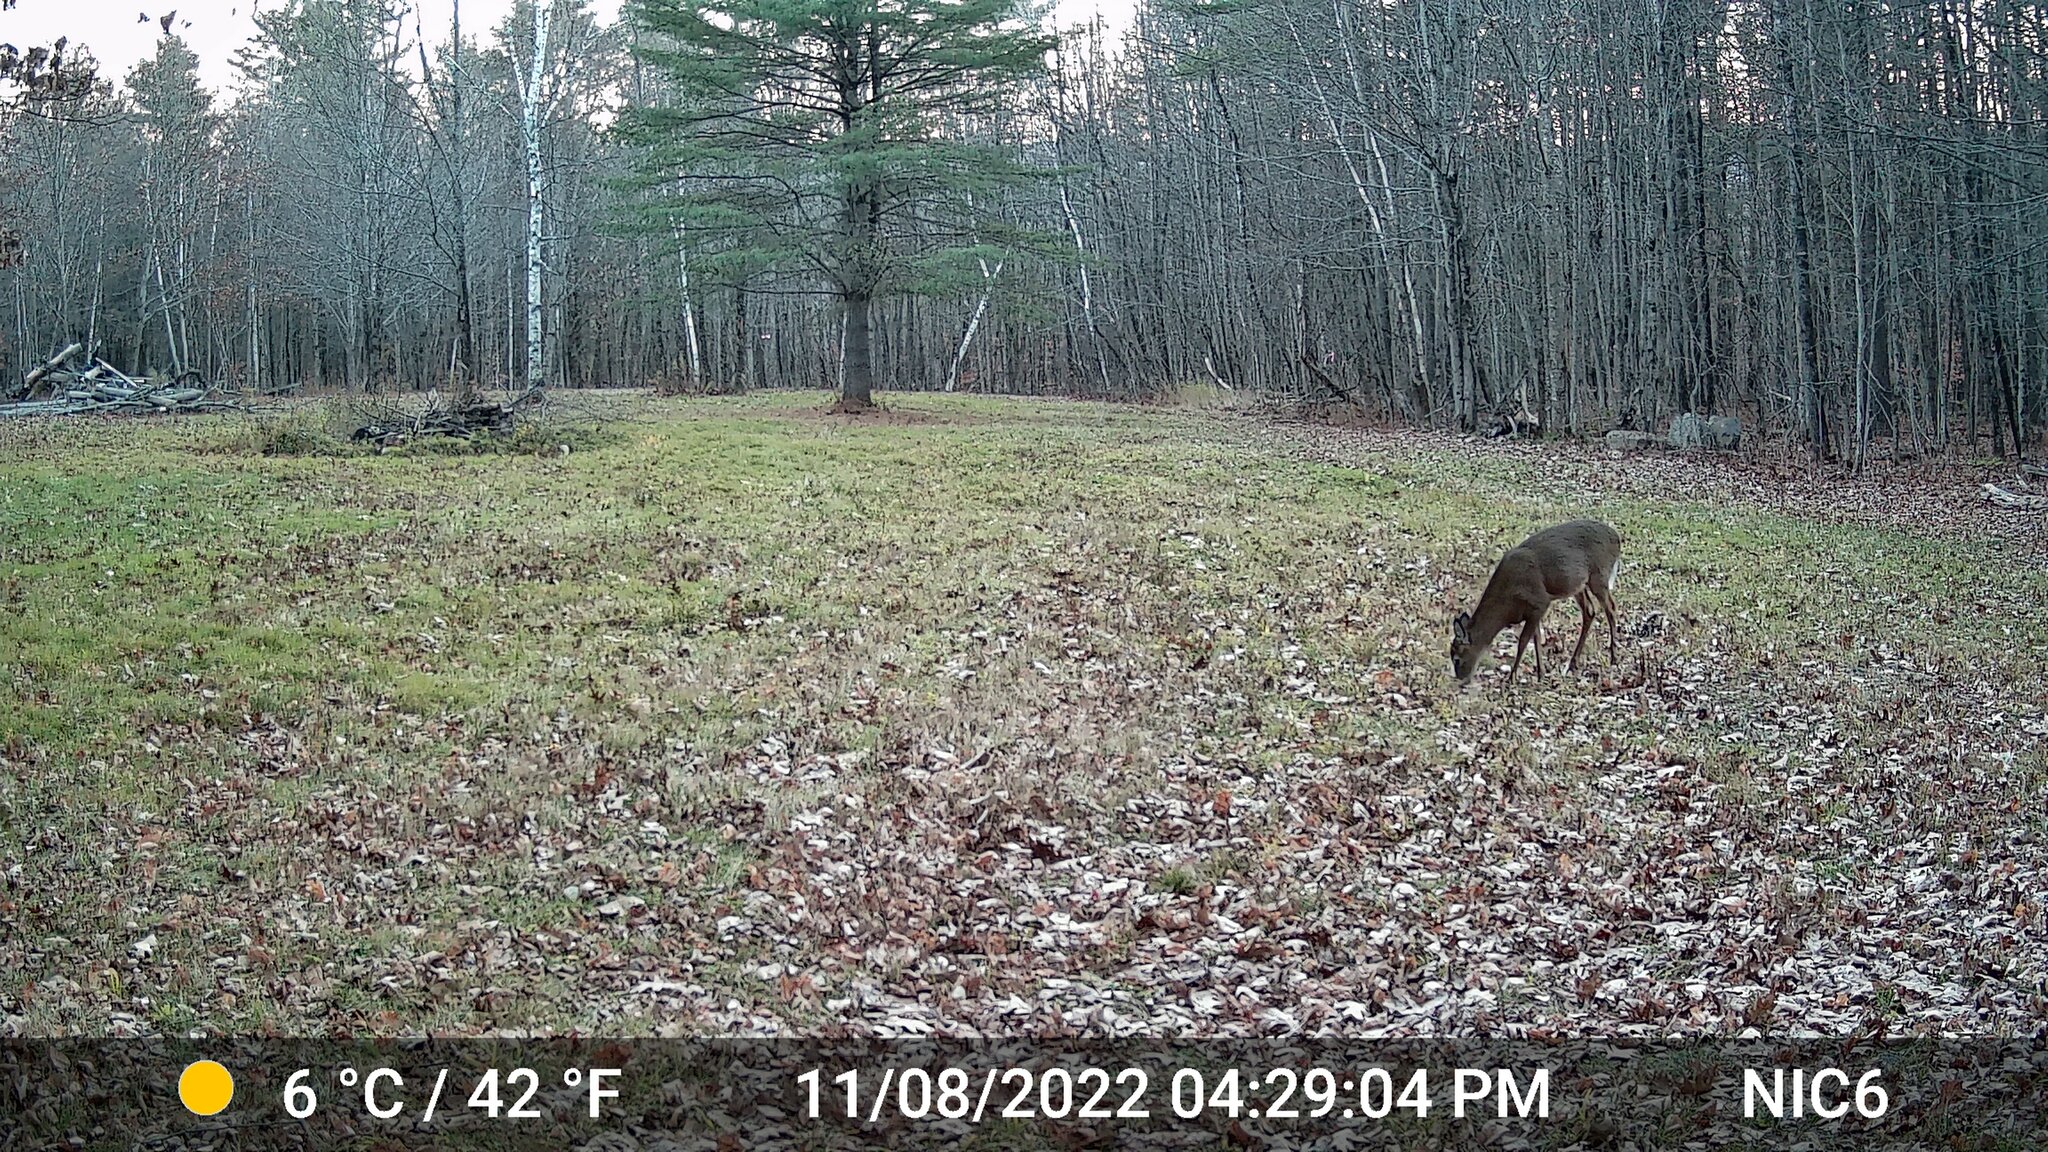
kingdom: Animalia
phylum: Chordata
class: Mammalia
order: Artiodactyla
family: Cervidae
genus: Odocoileus
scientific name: Odocoileus virginianus
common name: White-tailed deer
